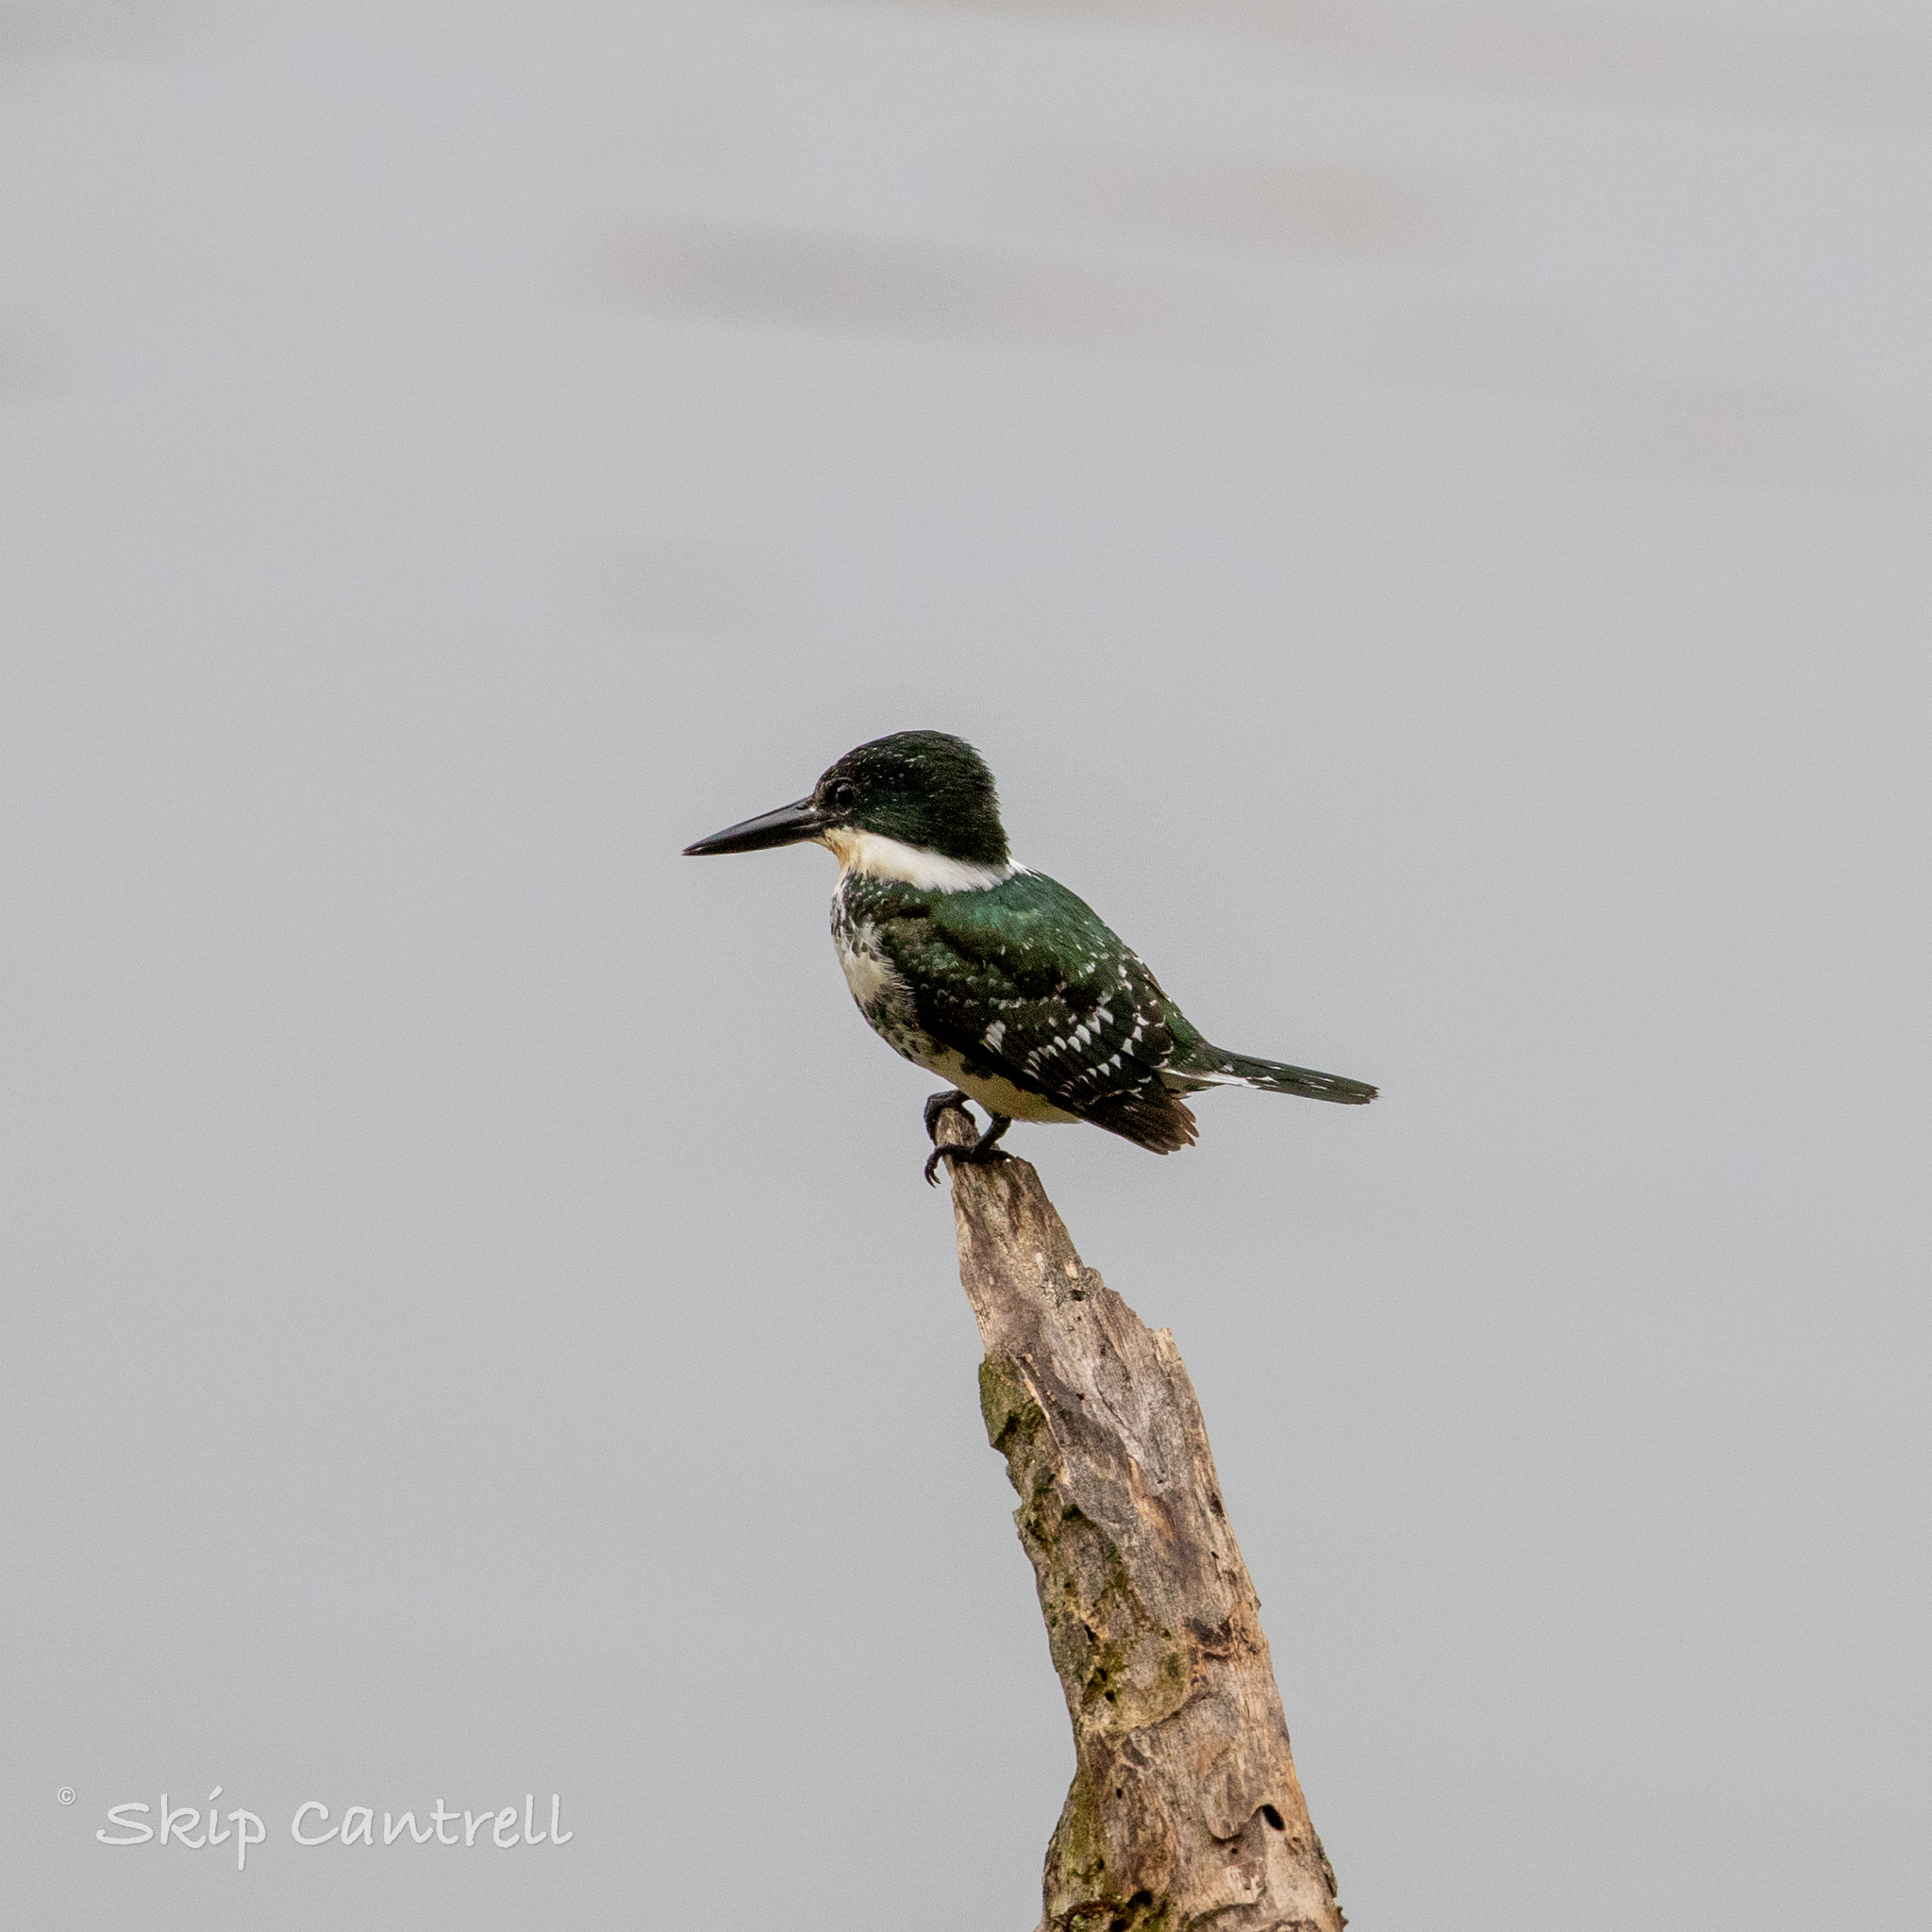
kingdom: Animalia
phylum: Chordata
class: Aves
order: Coraciiformes
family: Alcedinidae
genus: Chloroceryle
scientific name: Chloroceryle americana
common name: Green kingfisher
